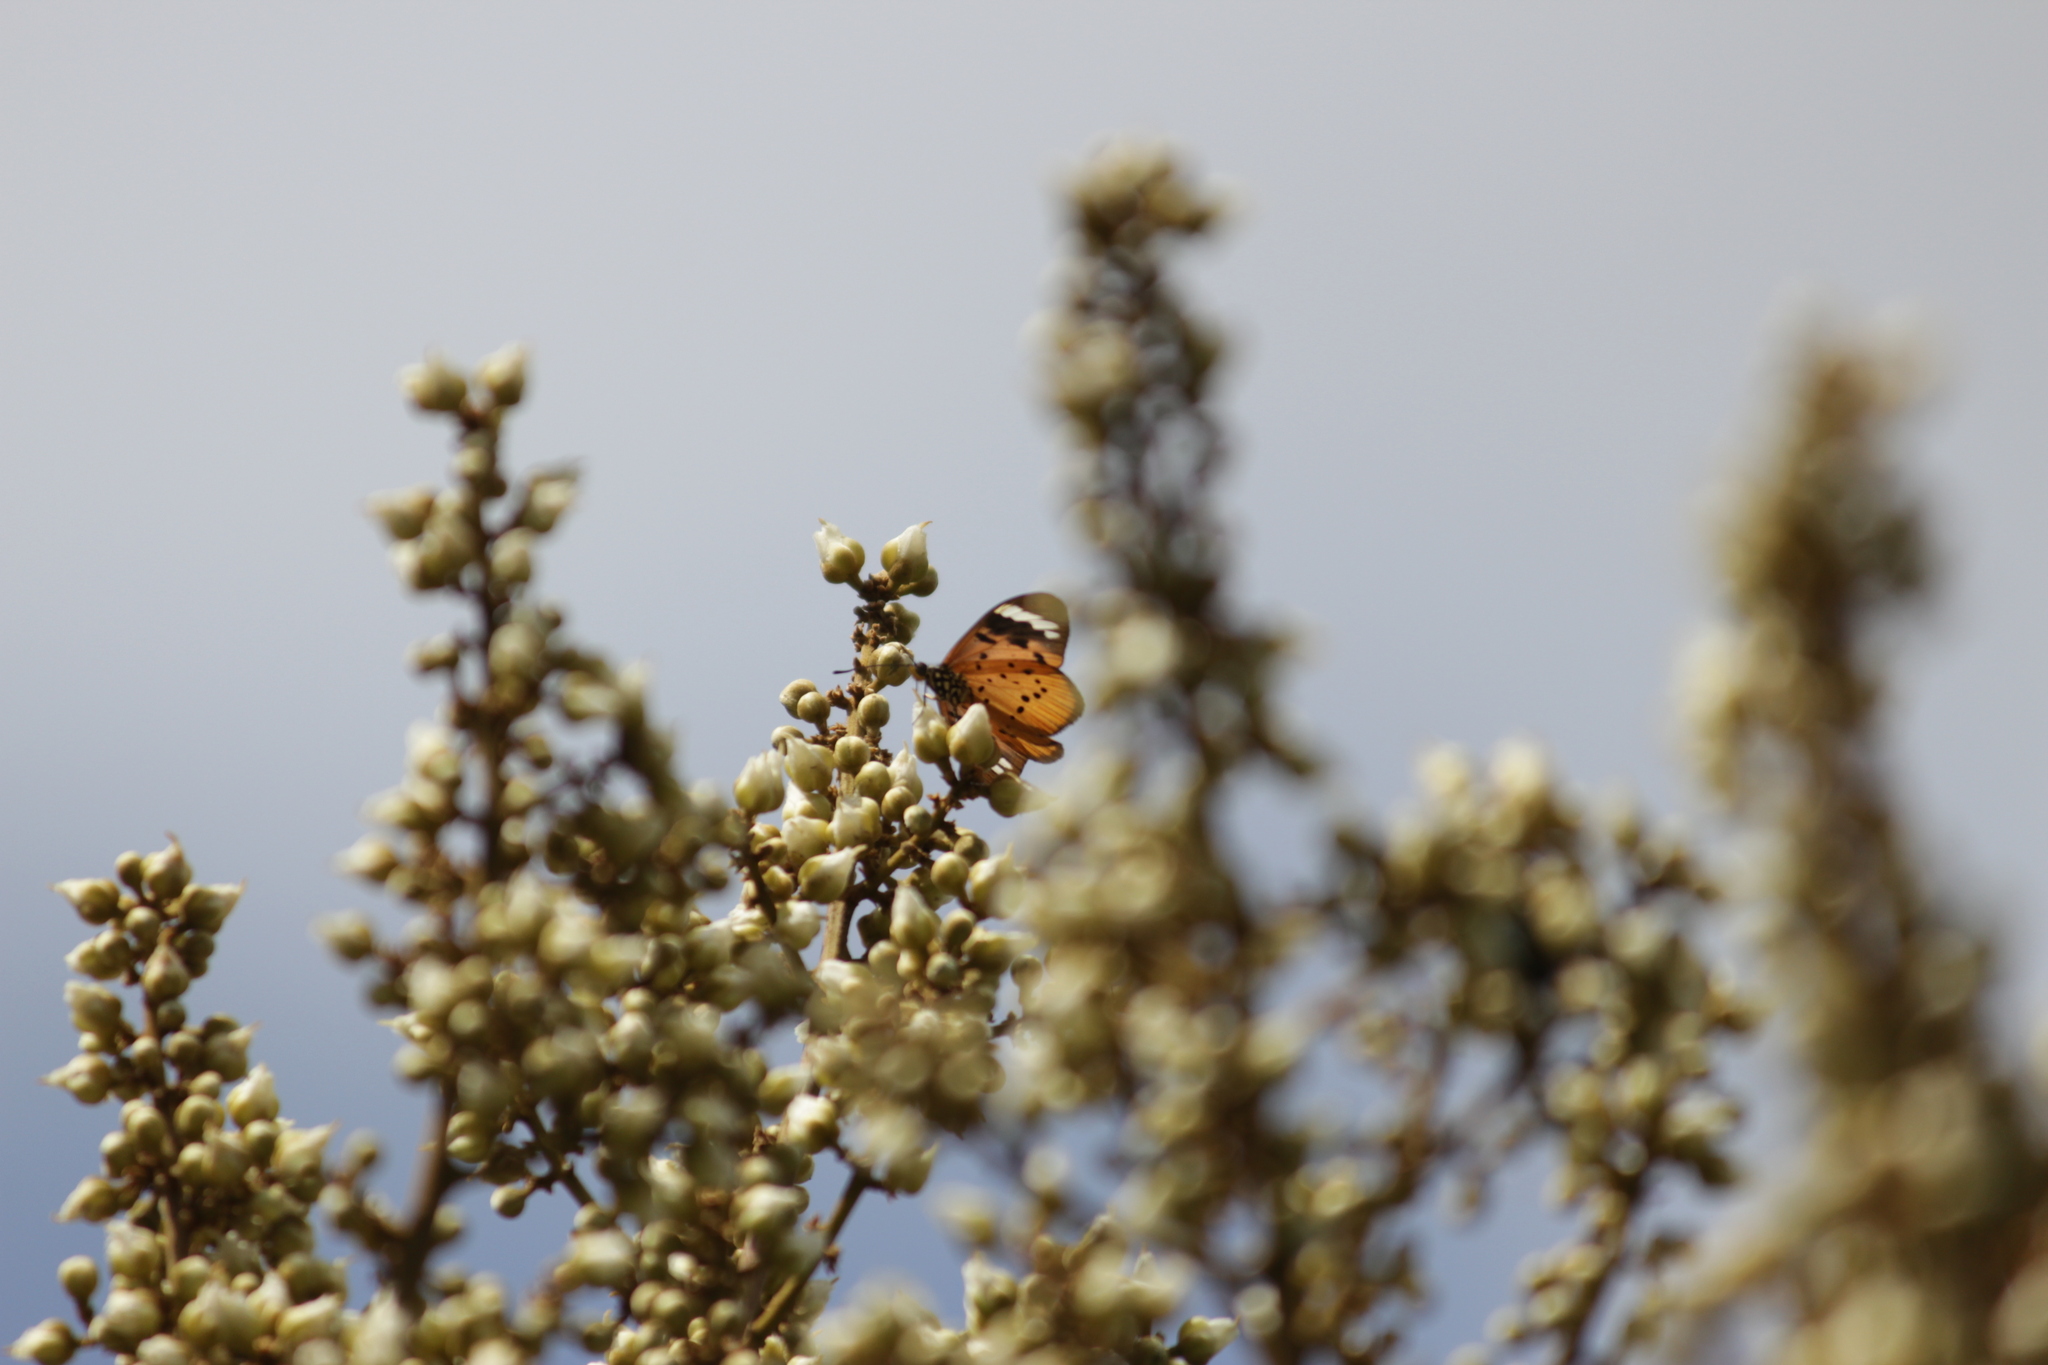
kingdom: Animalia
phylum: Arthropoda
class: Insecta
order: Lepidoptera
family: Nymphalidae
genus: Acraea
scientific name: Acraea Telchinia encedon
